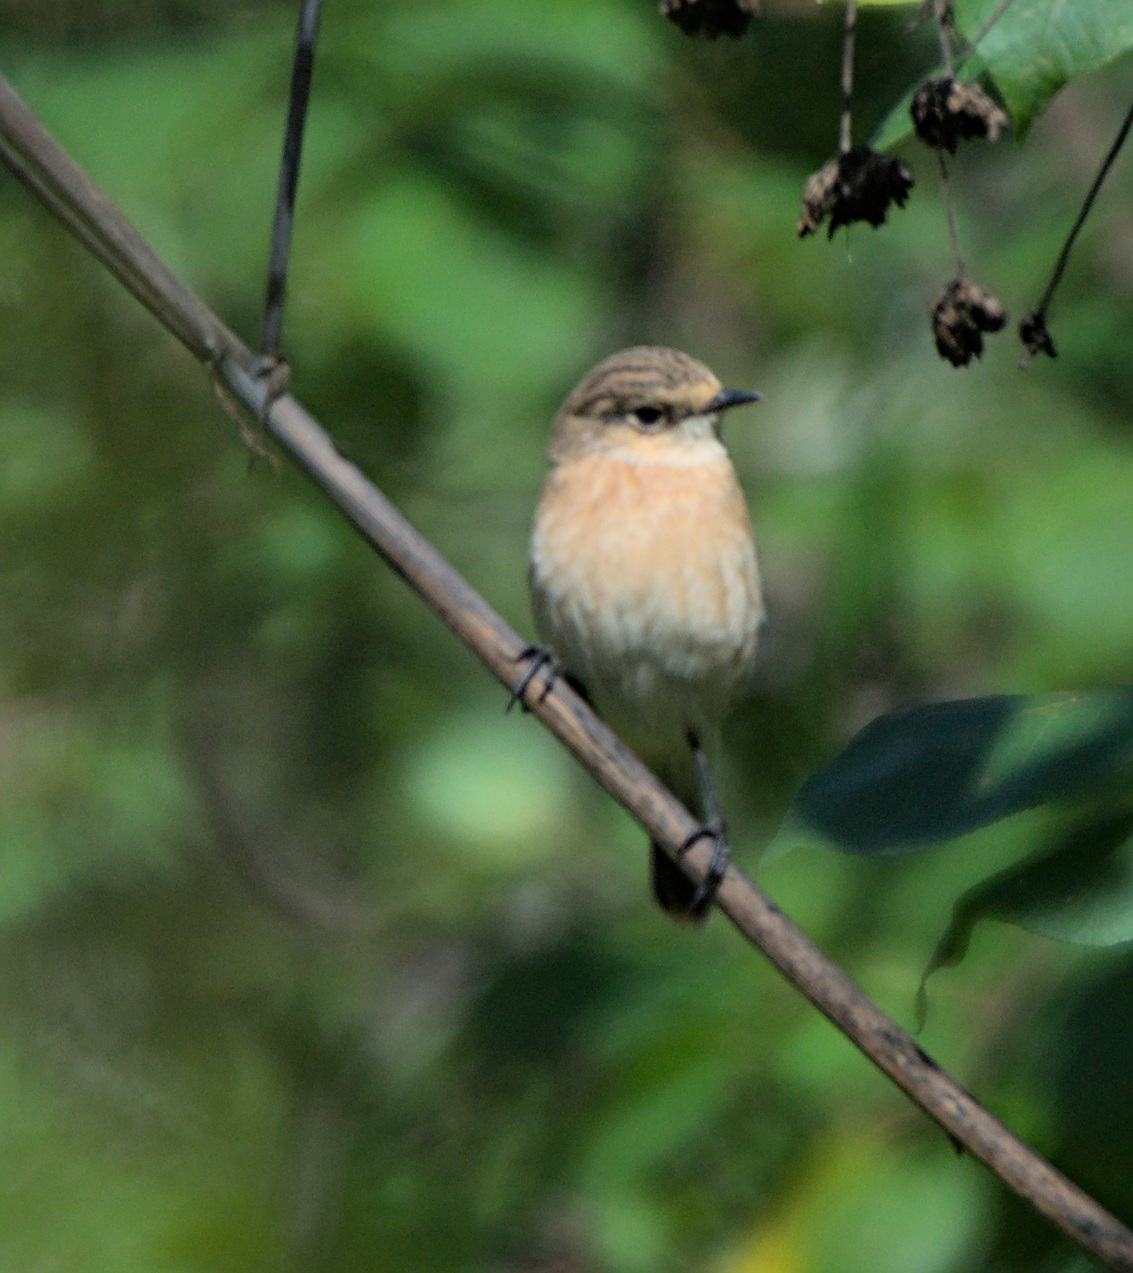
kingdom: Animalia
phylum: Chordata
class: Aves
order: Passeriformes
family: Muscicapidae
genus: Saxicola
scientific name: Saxicola maurus
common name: Siberian stonechat
